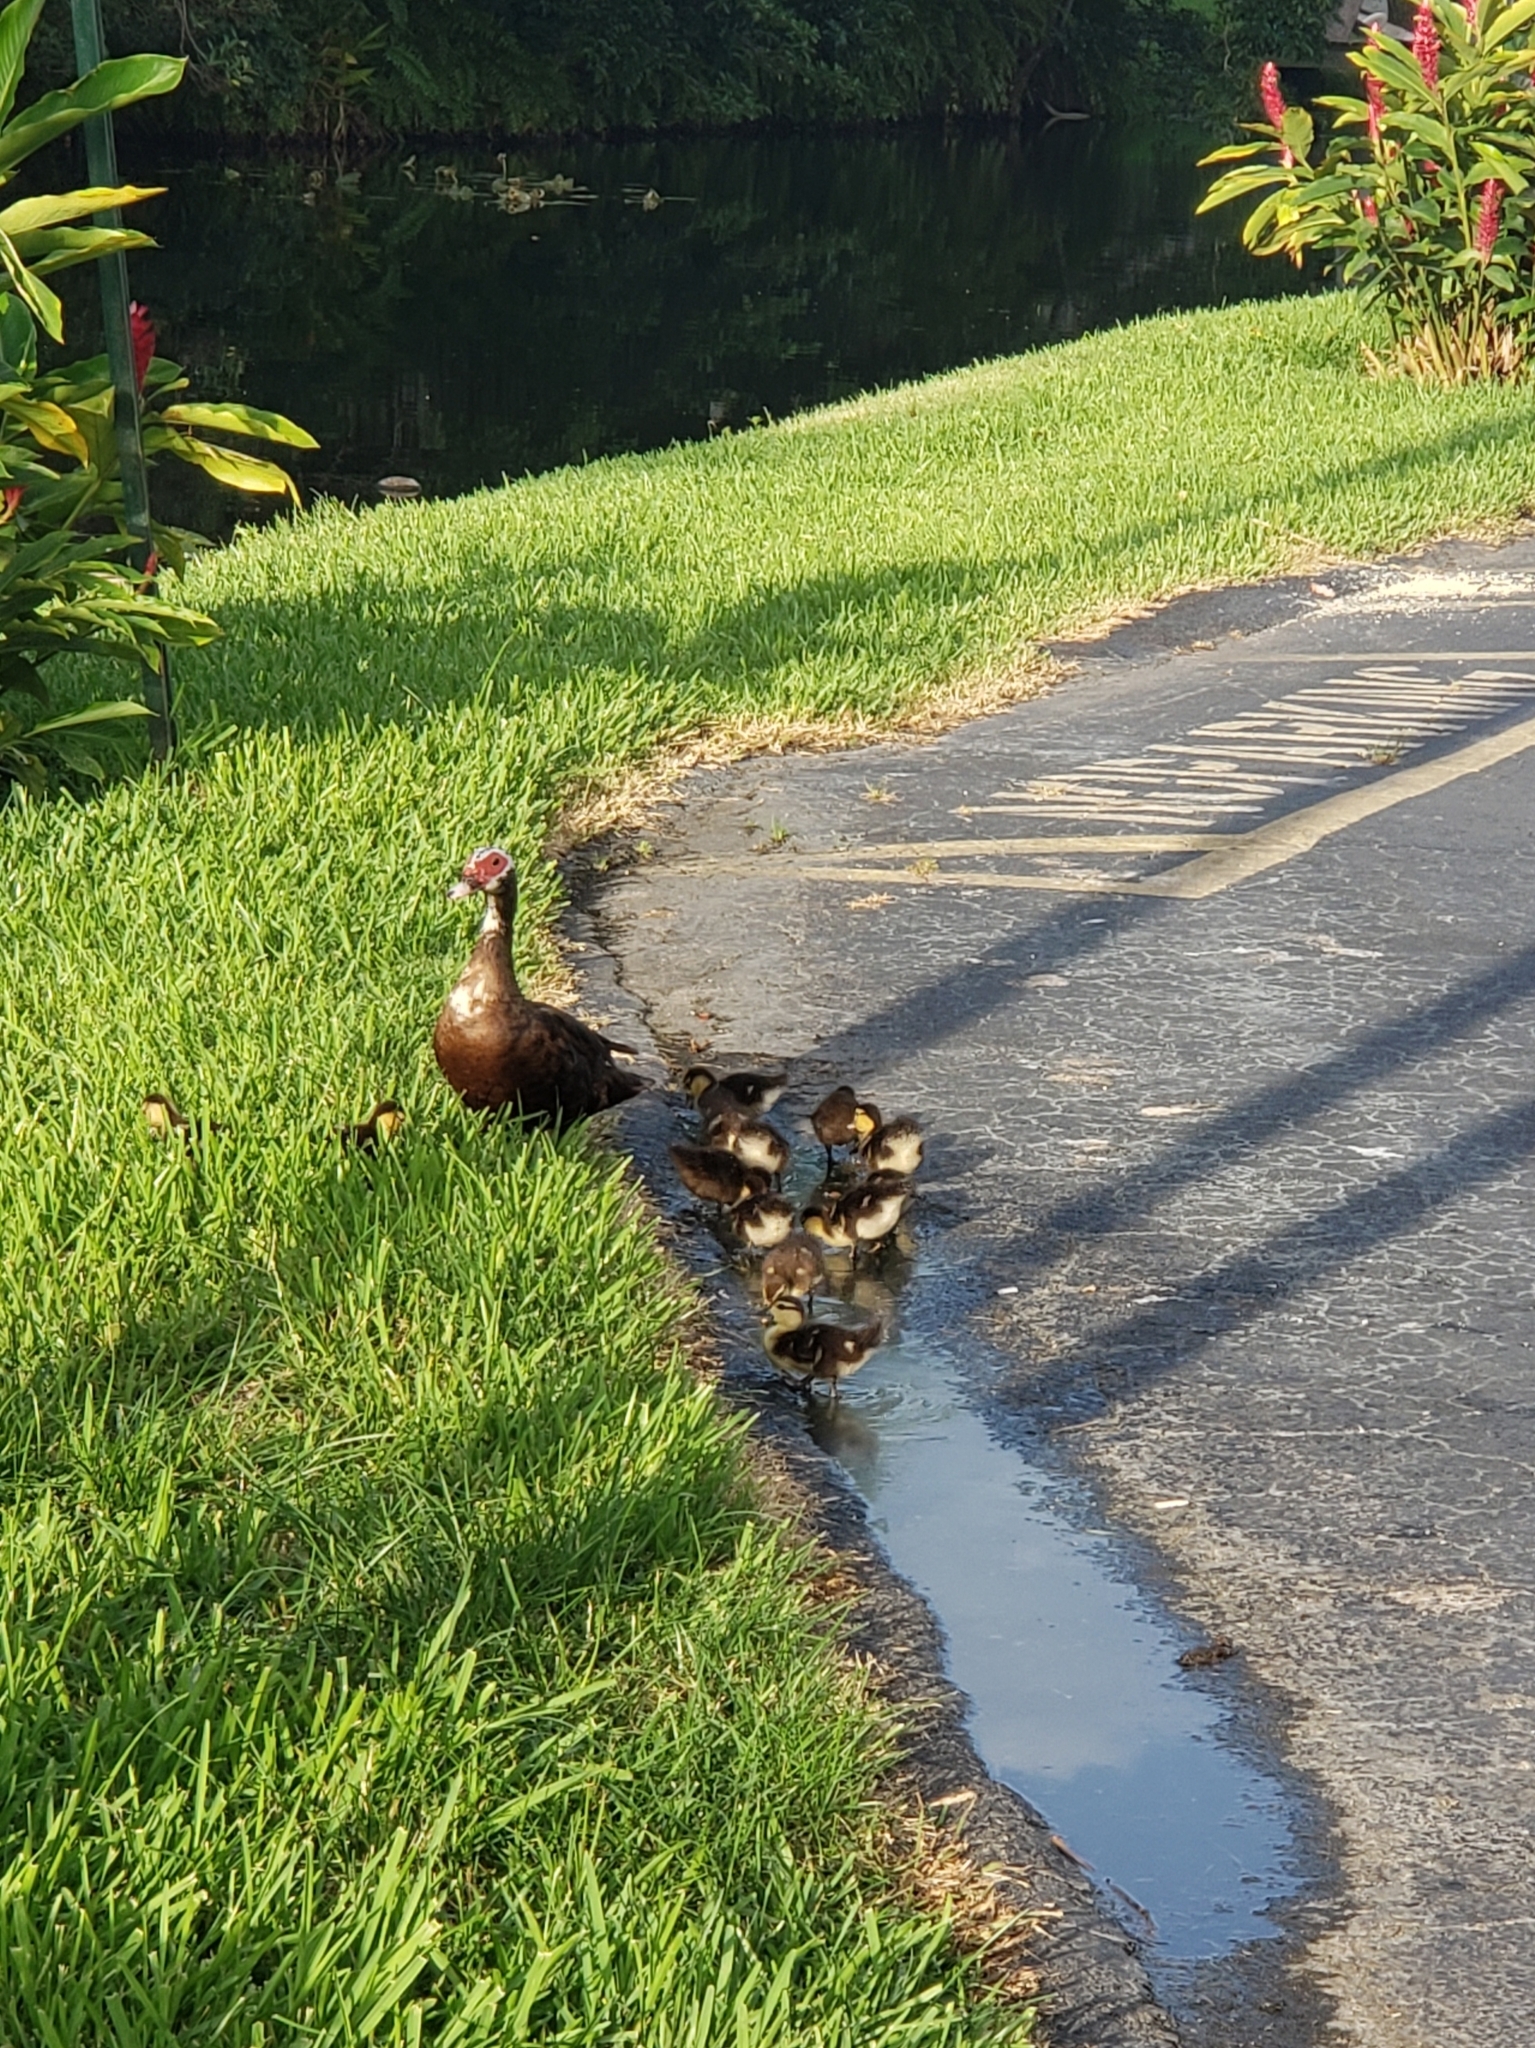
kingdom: Animalia
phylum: Chordata
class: Aves
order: Anseriformes
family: Anatidae
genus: Cairina
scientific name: Cairina moschata
